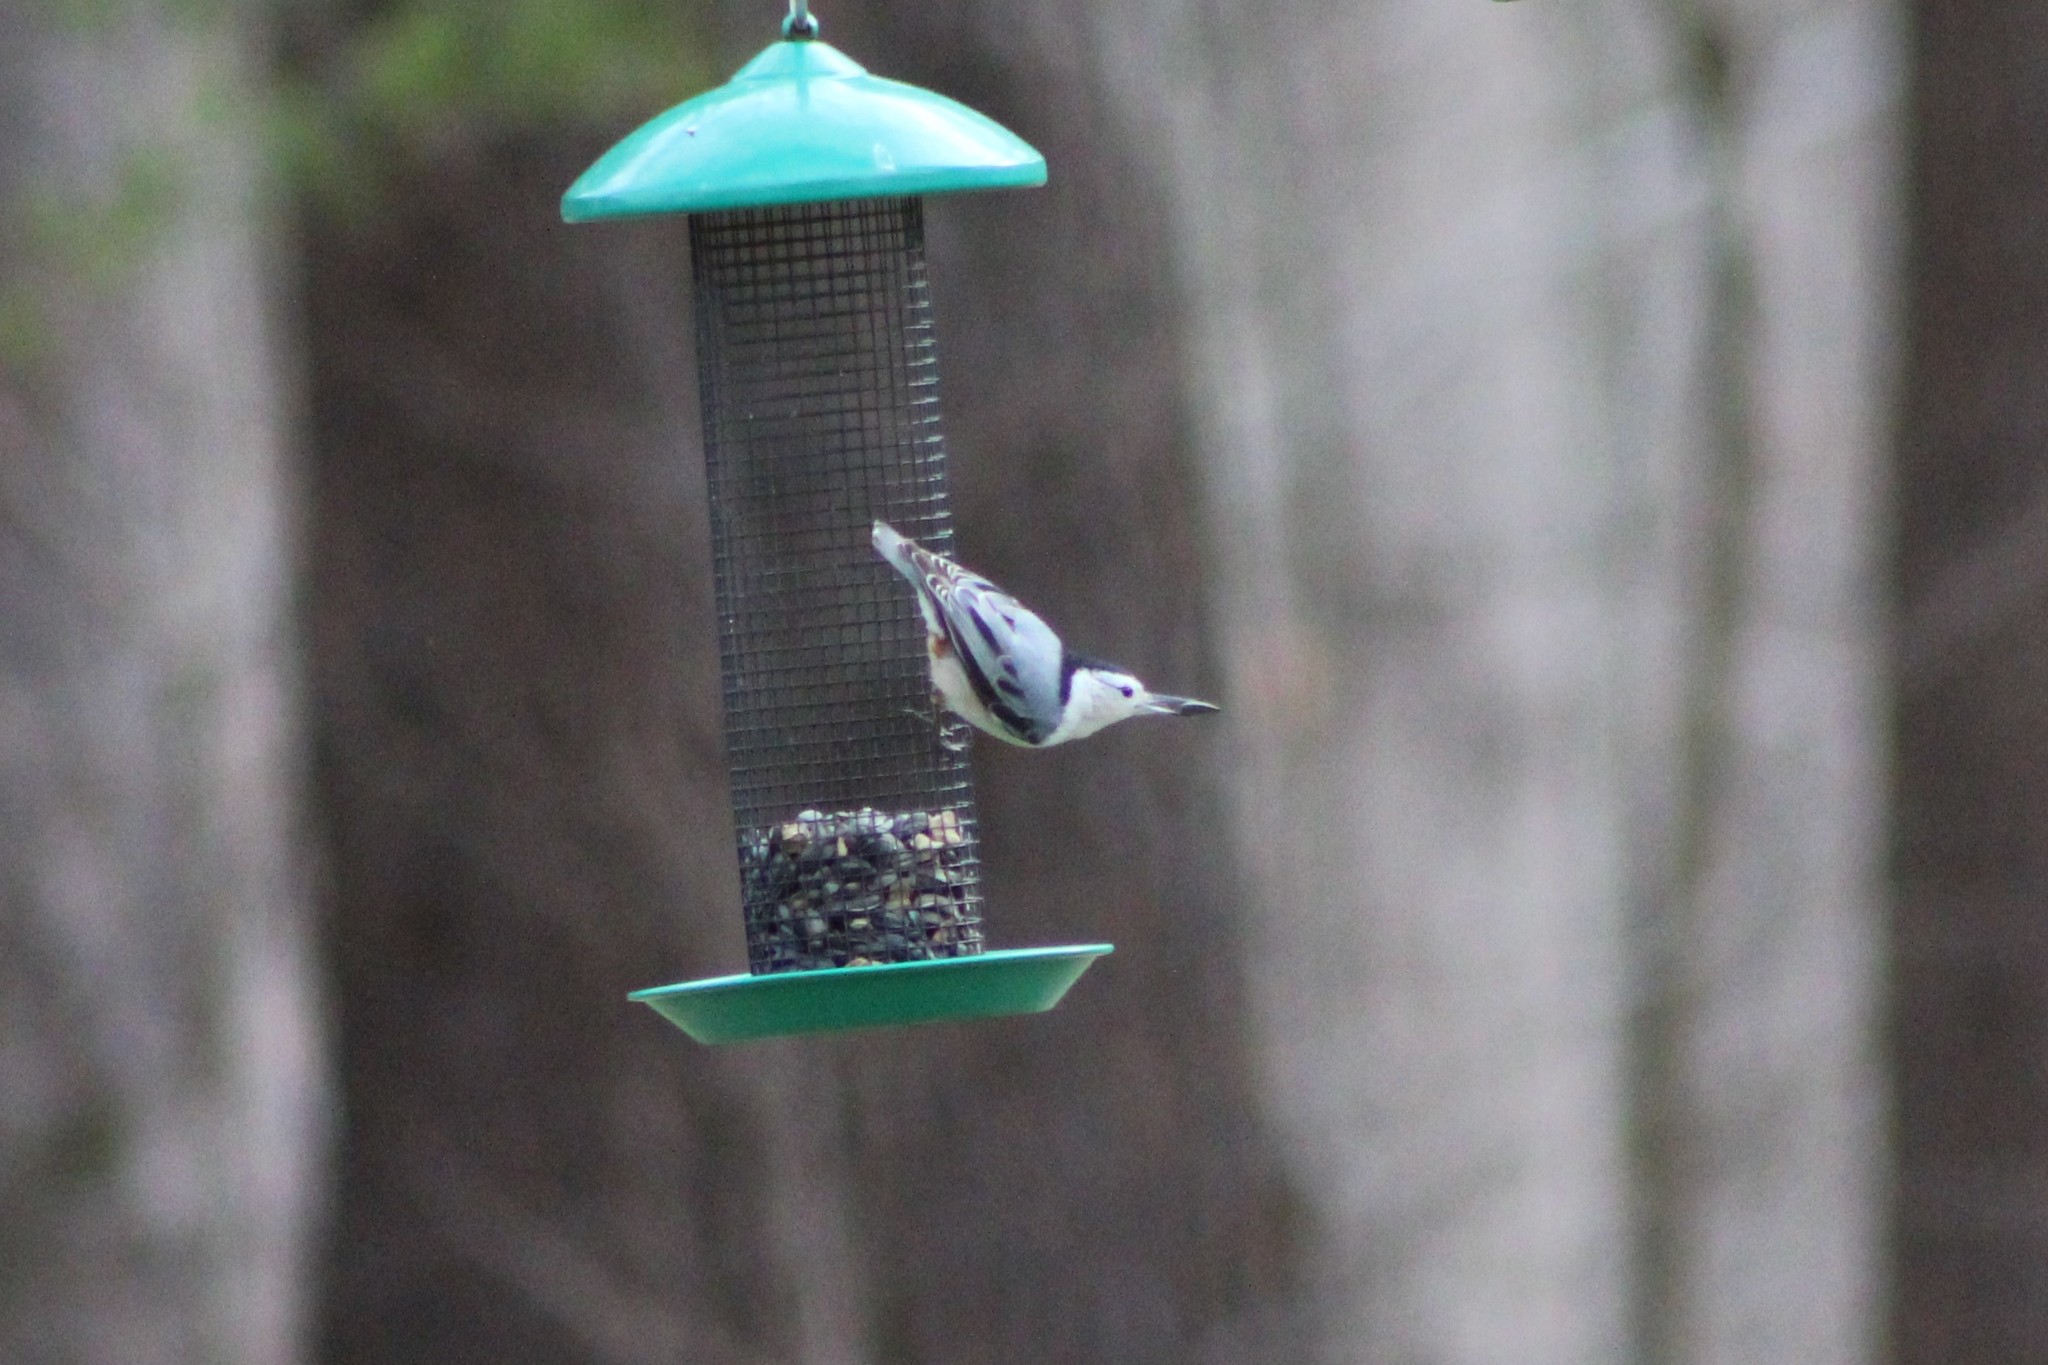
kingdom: Animalia
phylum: Chordata
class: Aves
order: Passeriformes
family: Sittidae
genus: Sitta
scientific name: Sitta carolinensis
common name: White-breasted nuthatch
